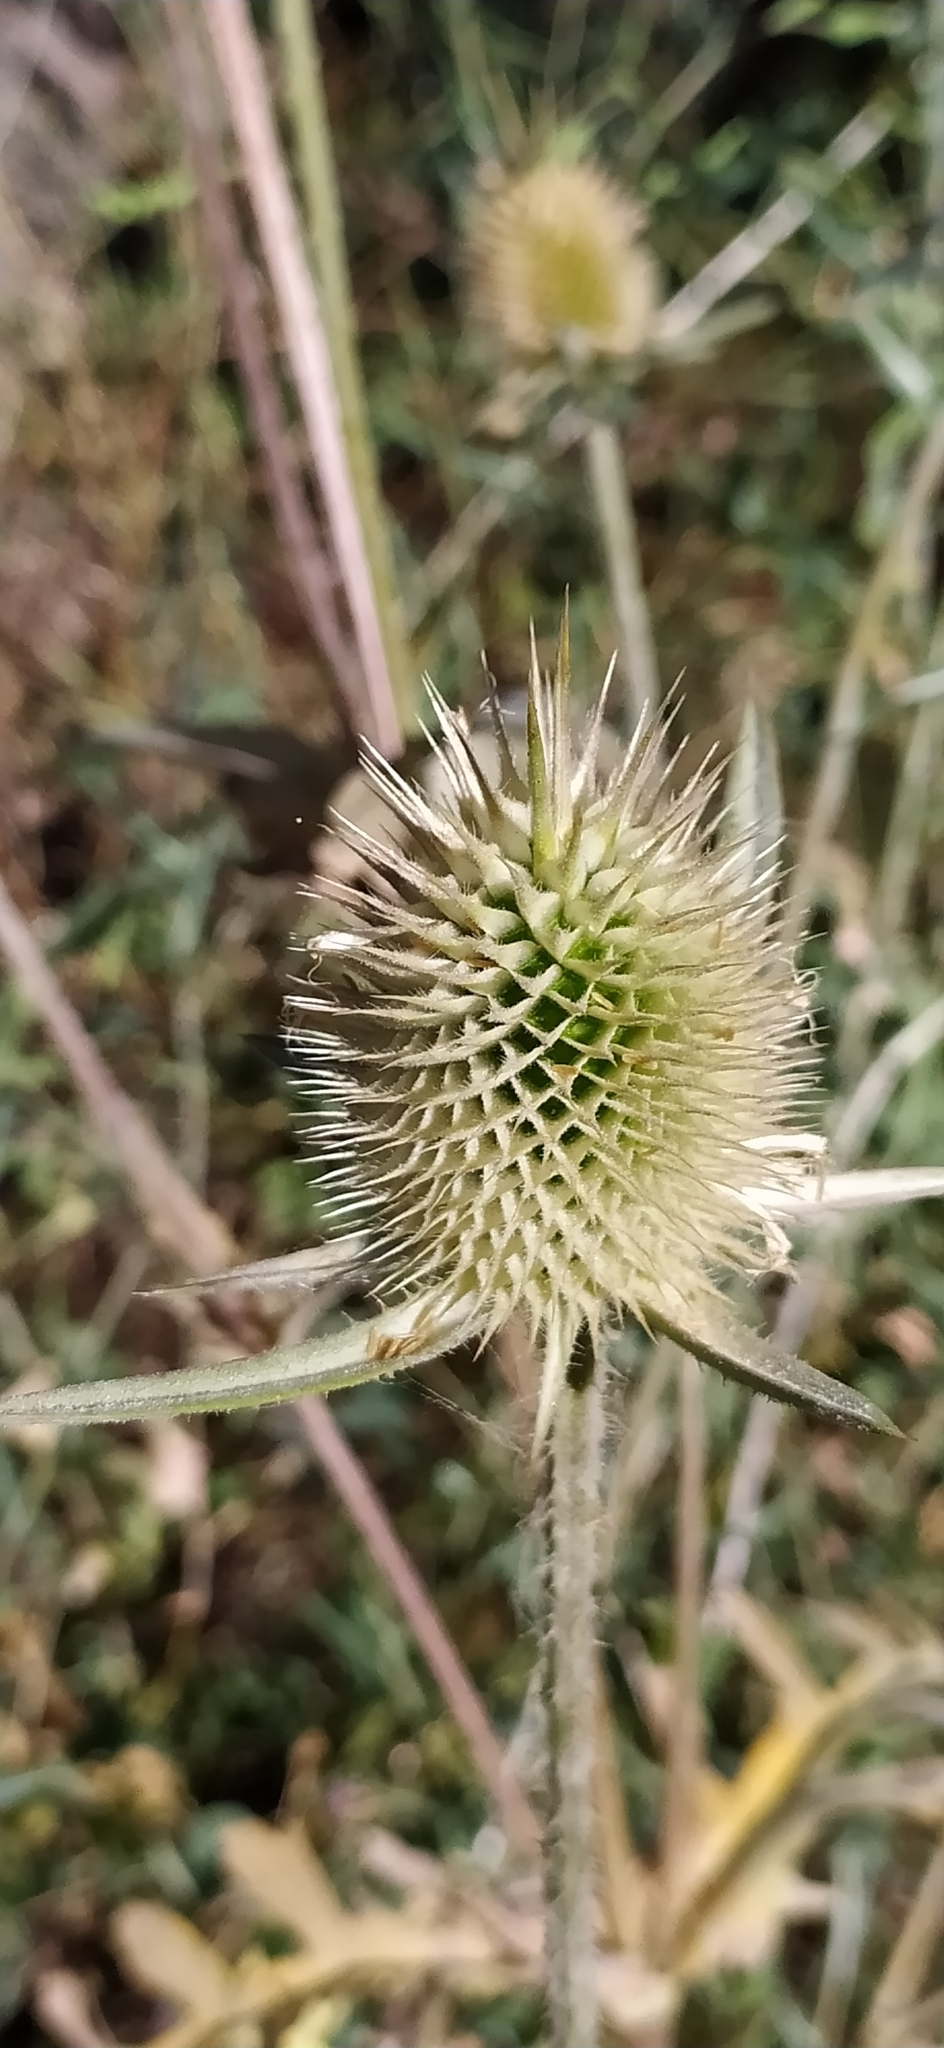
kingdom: Plantae
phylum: Tracheophyta
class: Magnoliopsida
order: Dipsacales
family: Caprifoliaceae
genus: Dipsacus
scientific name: Dipsacus laciniatus
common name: Cut-leaved teasel
